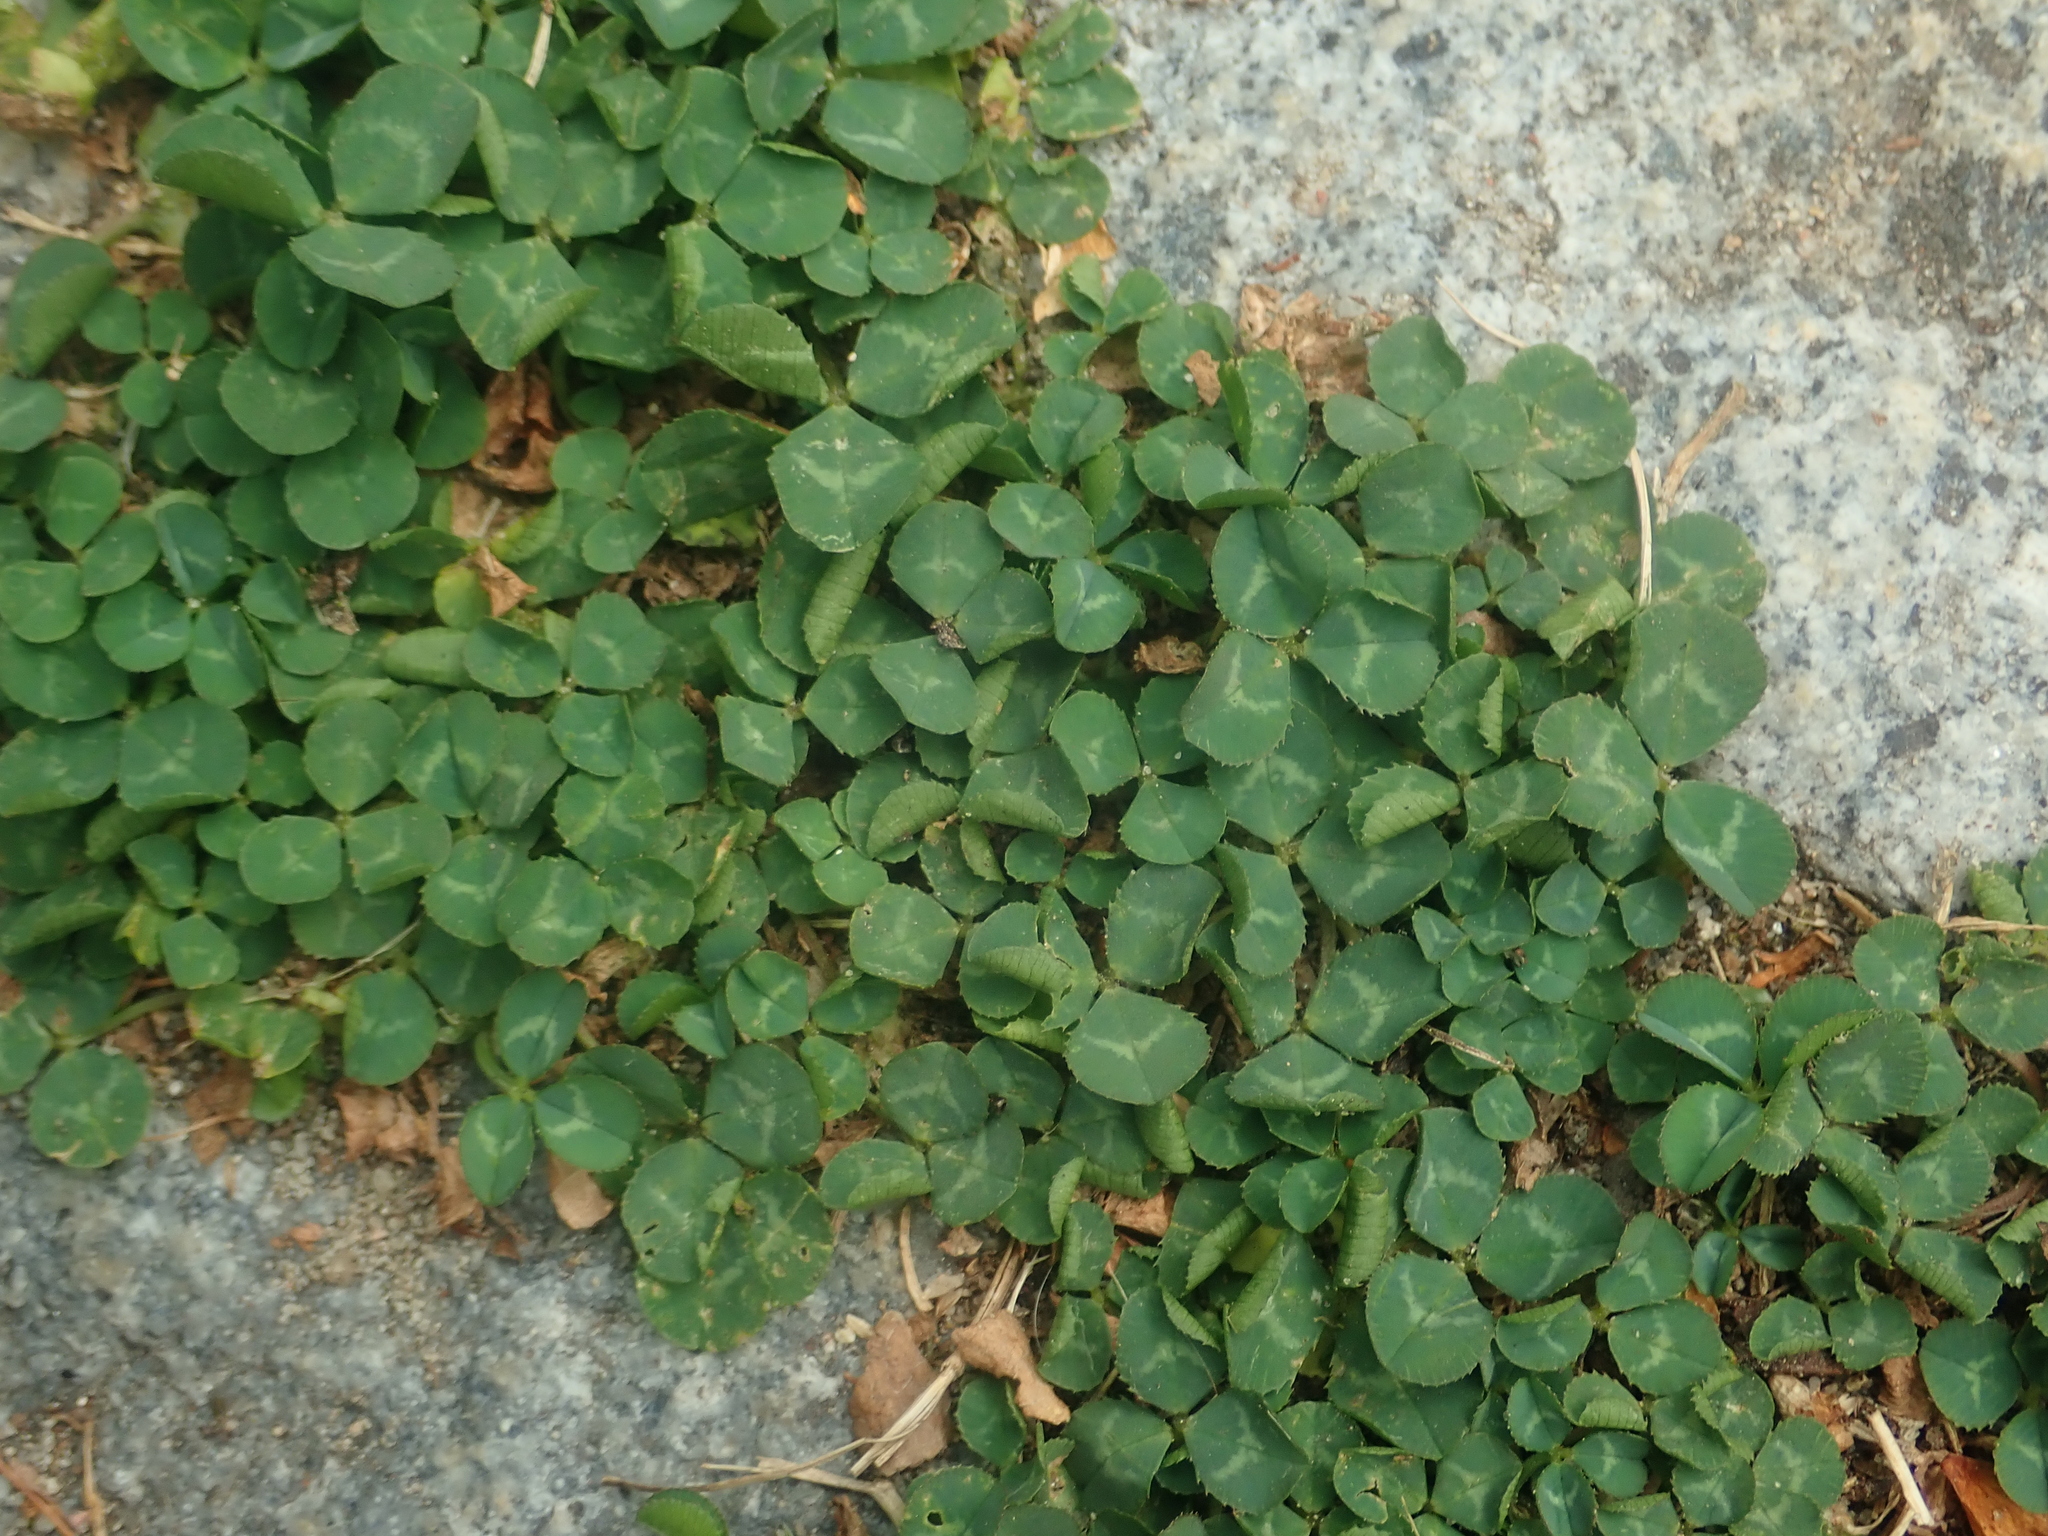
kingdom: Plantae
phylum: Tracheophyta
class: Magnoliopsida
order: Fabales
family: Fabaceae
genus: Trifolium
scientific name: Trifolium repens
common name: White clover
